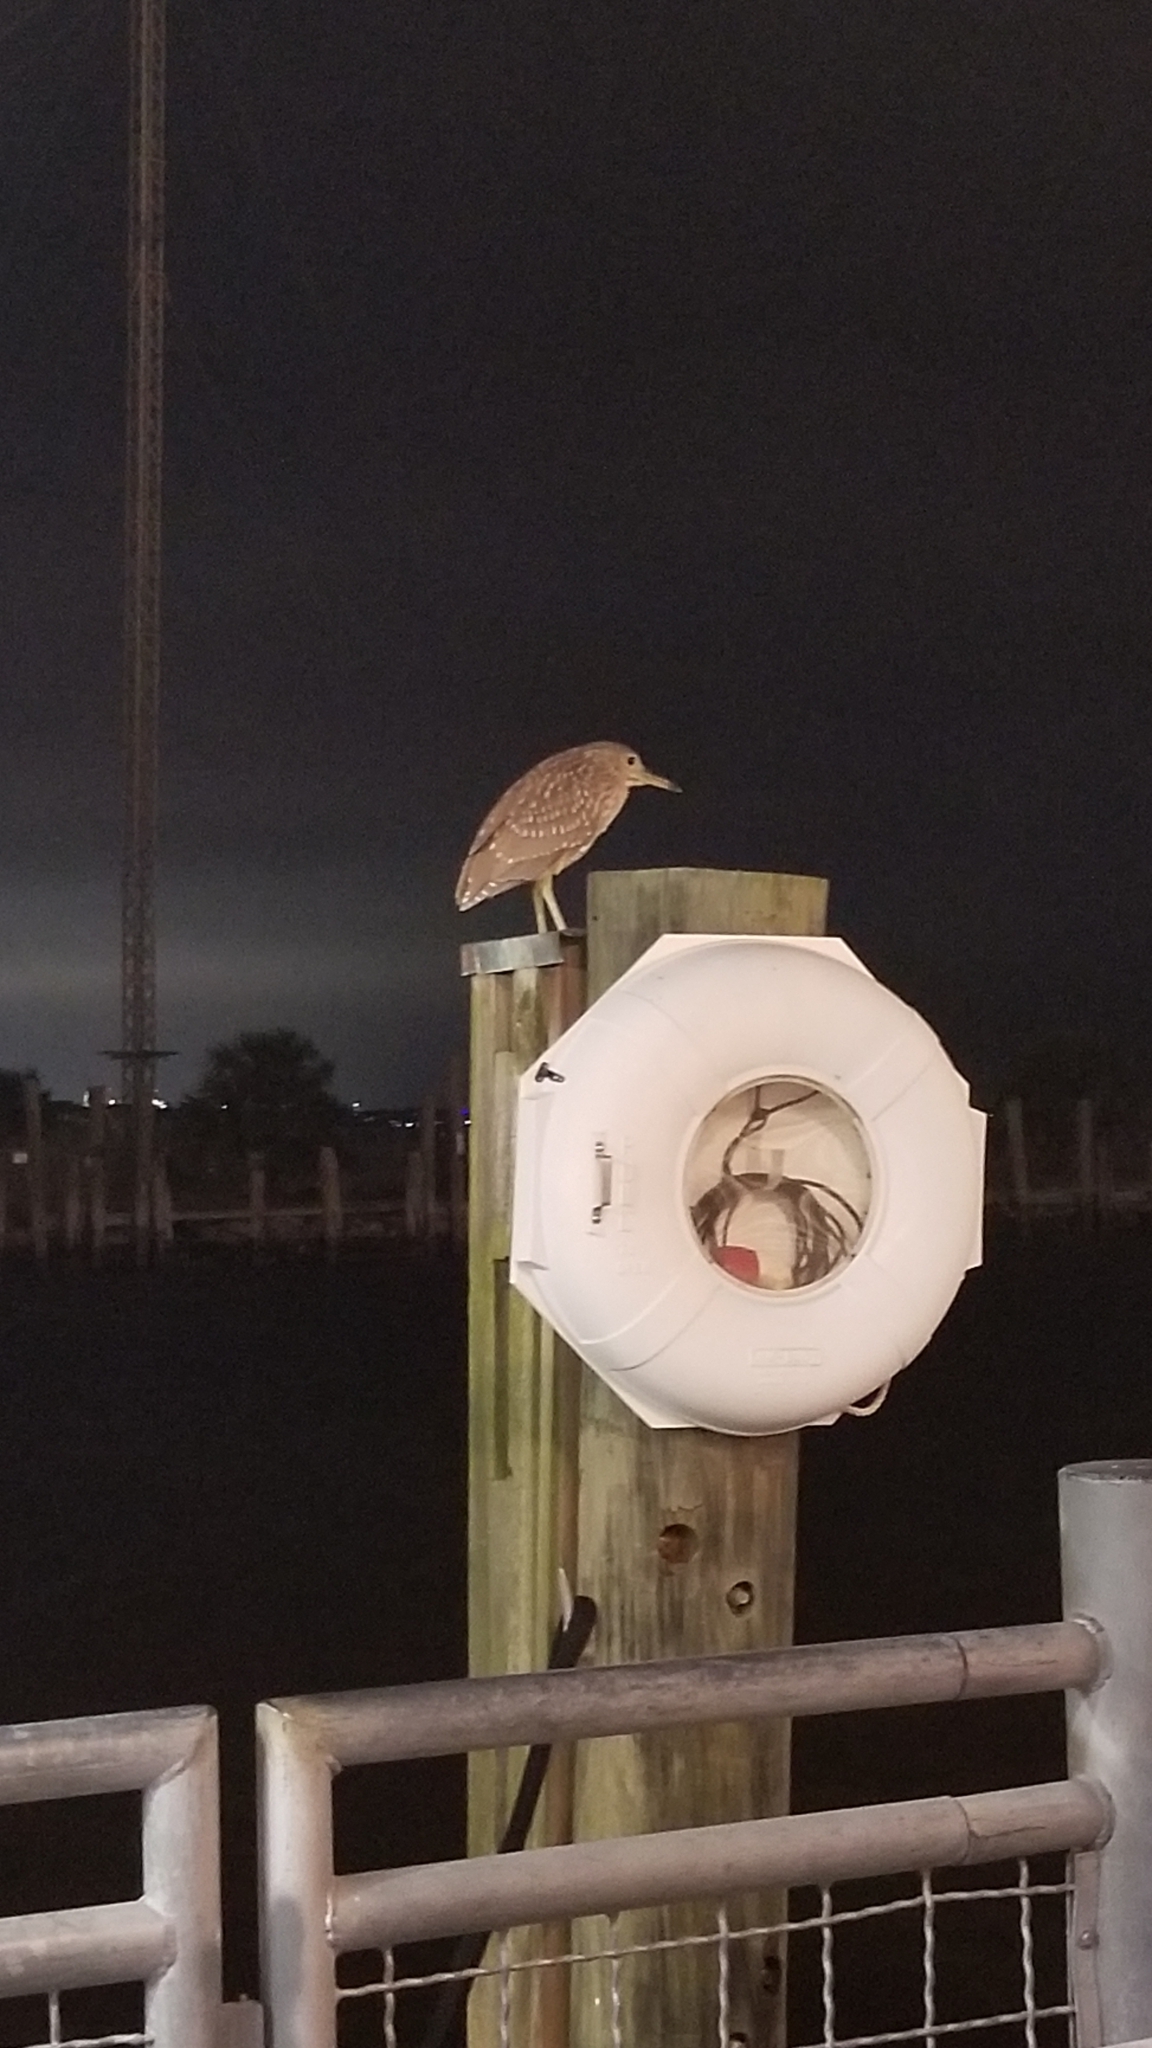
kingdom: Animalia
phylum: Chordata
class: Aves
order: Pelecaniformes
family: Ardeidae
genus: Nycticorax
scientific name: Nycticorax nycticorax
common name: Black-crowned night heron
